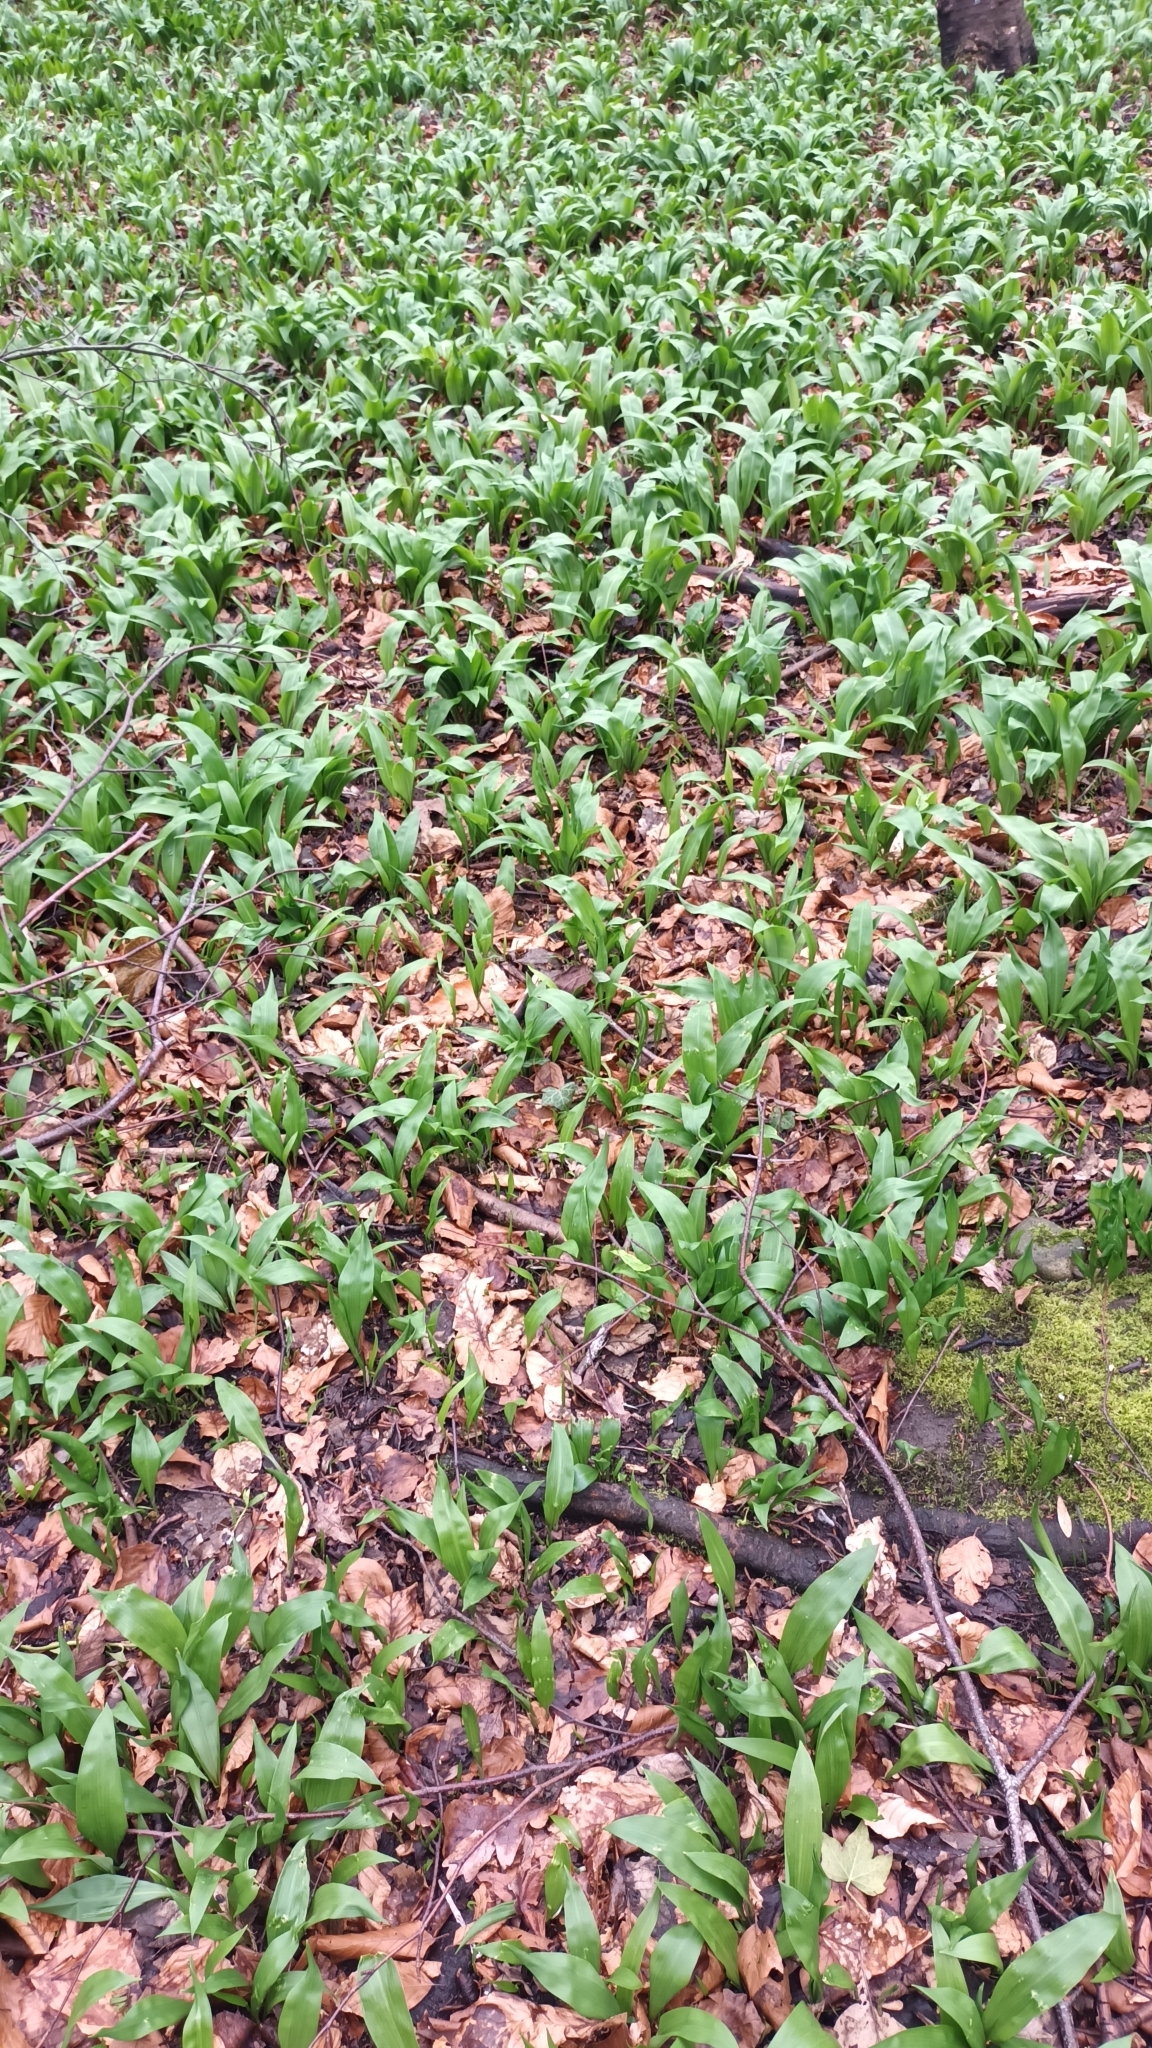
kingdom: Plantae
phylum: Tracheophyta
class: Liliopsida
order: Asparagales
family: Amaryllidaceae
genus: Allium
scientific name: Allium ursinum
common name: Ramsons
